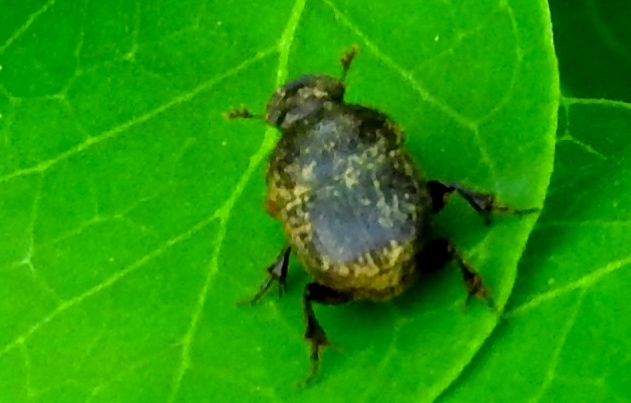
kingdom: Animalia
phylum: Arthropoda
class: Insecta
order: Coleoptera
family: Scarabaeidae
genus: Onthophagus
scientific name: Onthophagus
